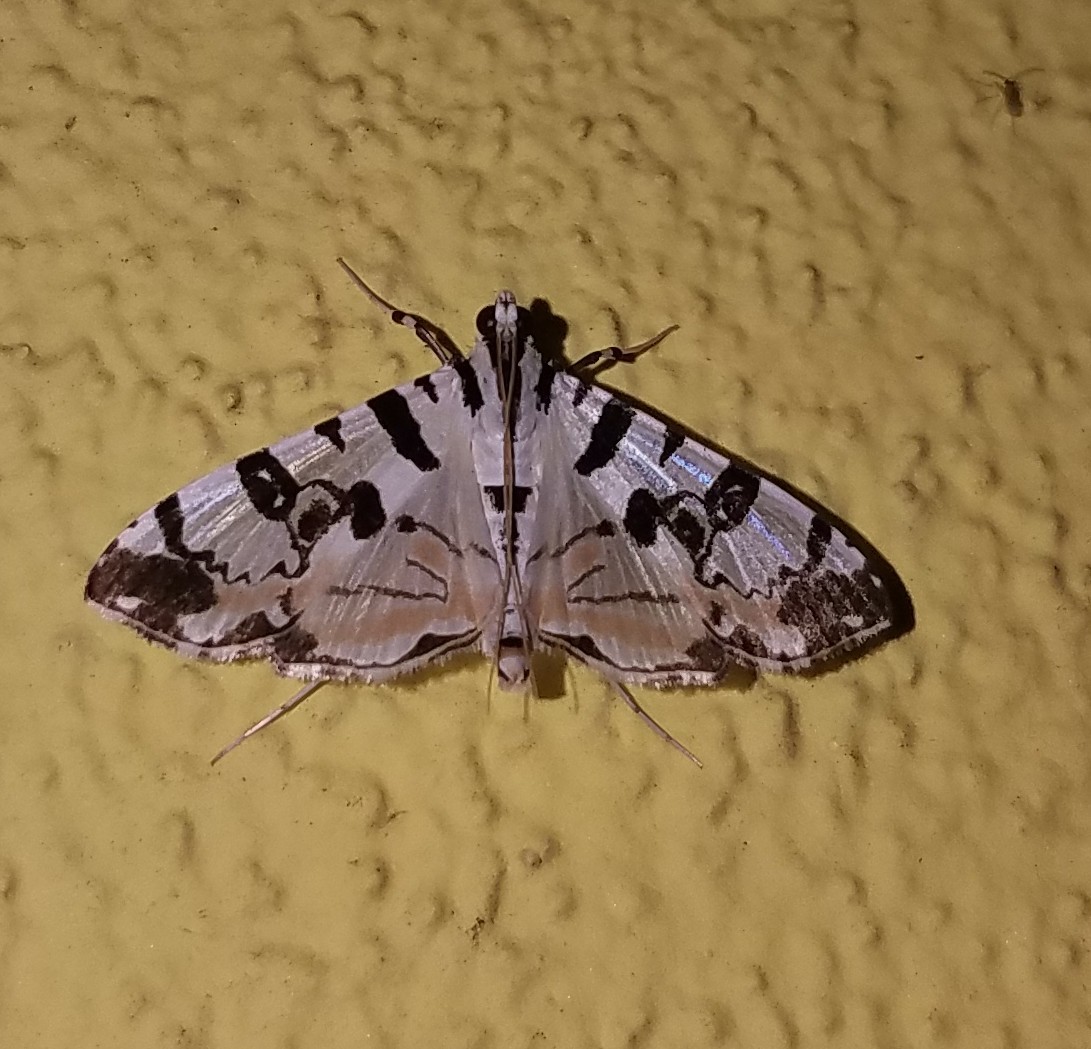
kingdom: Animalia
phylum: Arthropoda
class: Insecta
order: Lepidoptera
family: Crambidae
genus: Conchylodes
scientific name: Conchylodes salamisalis
